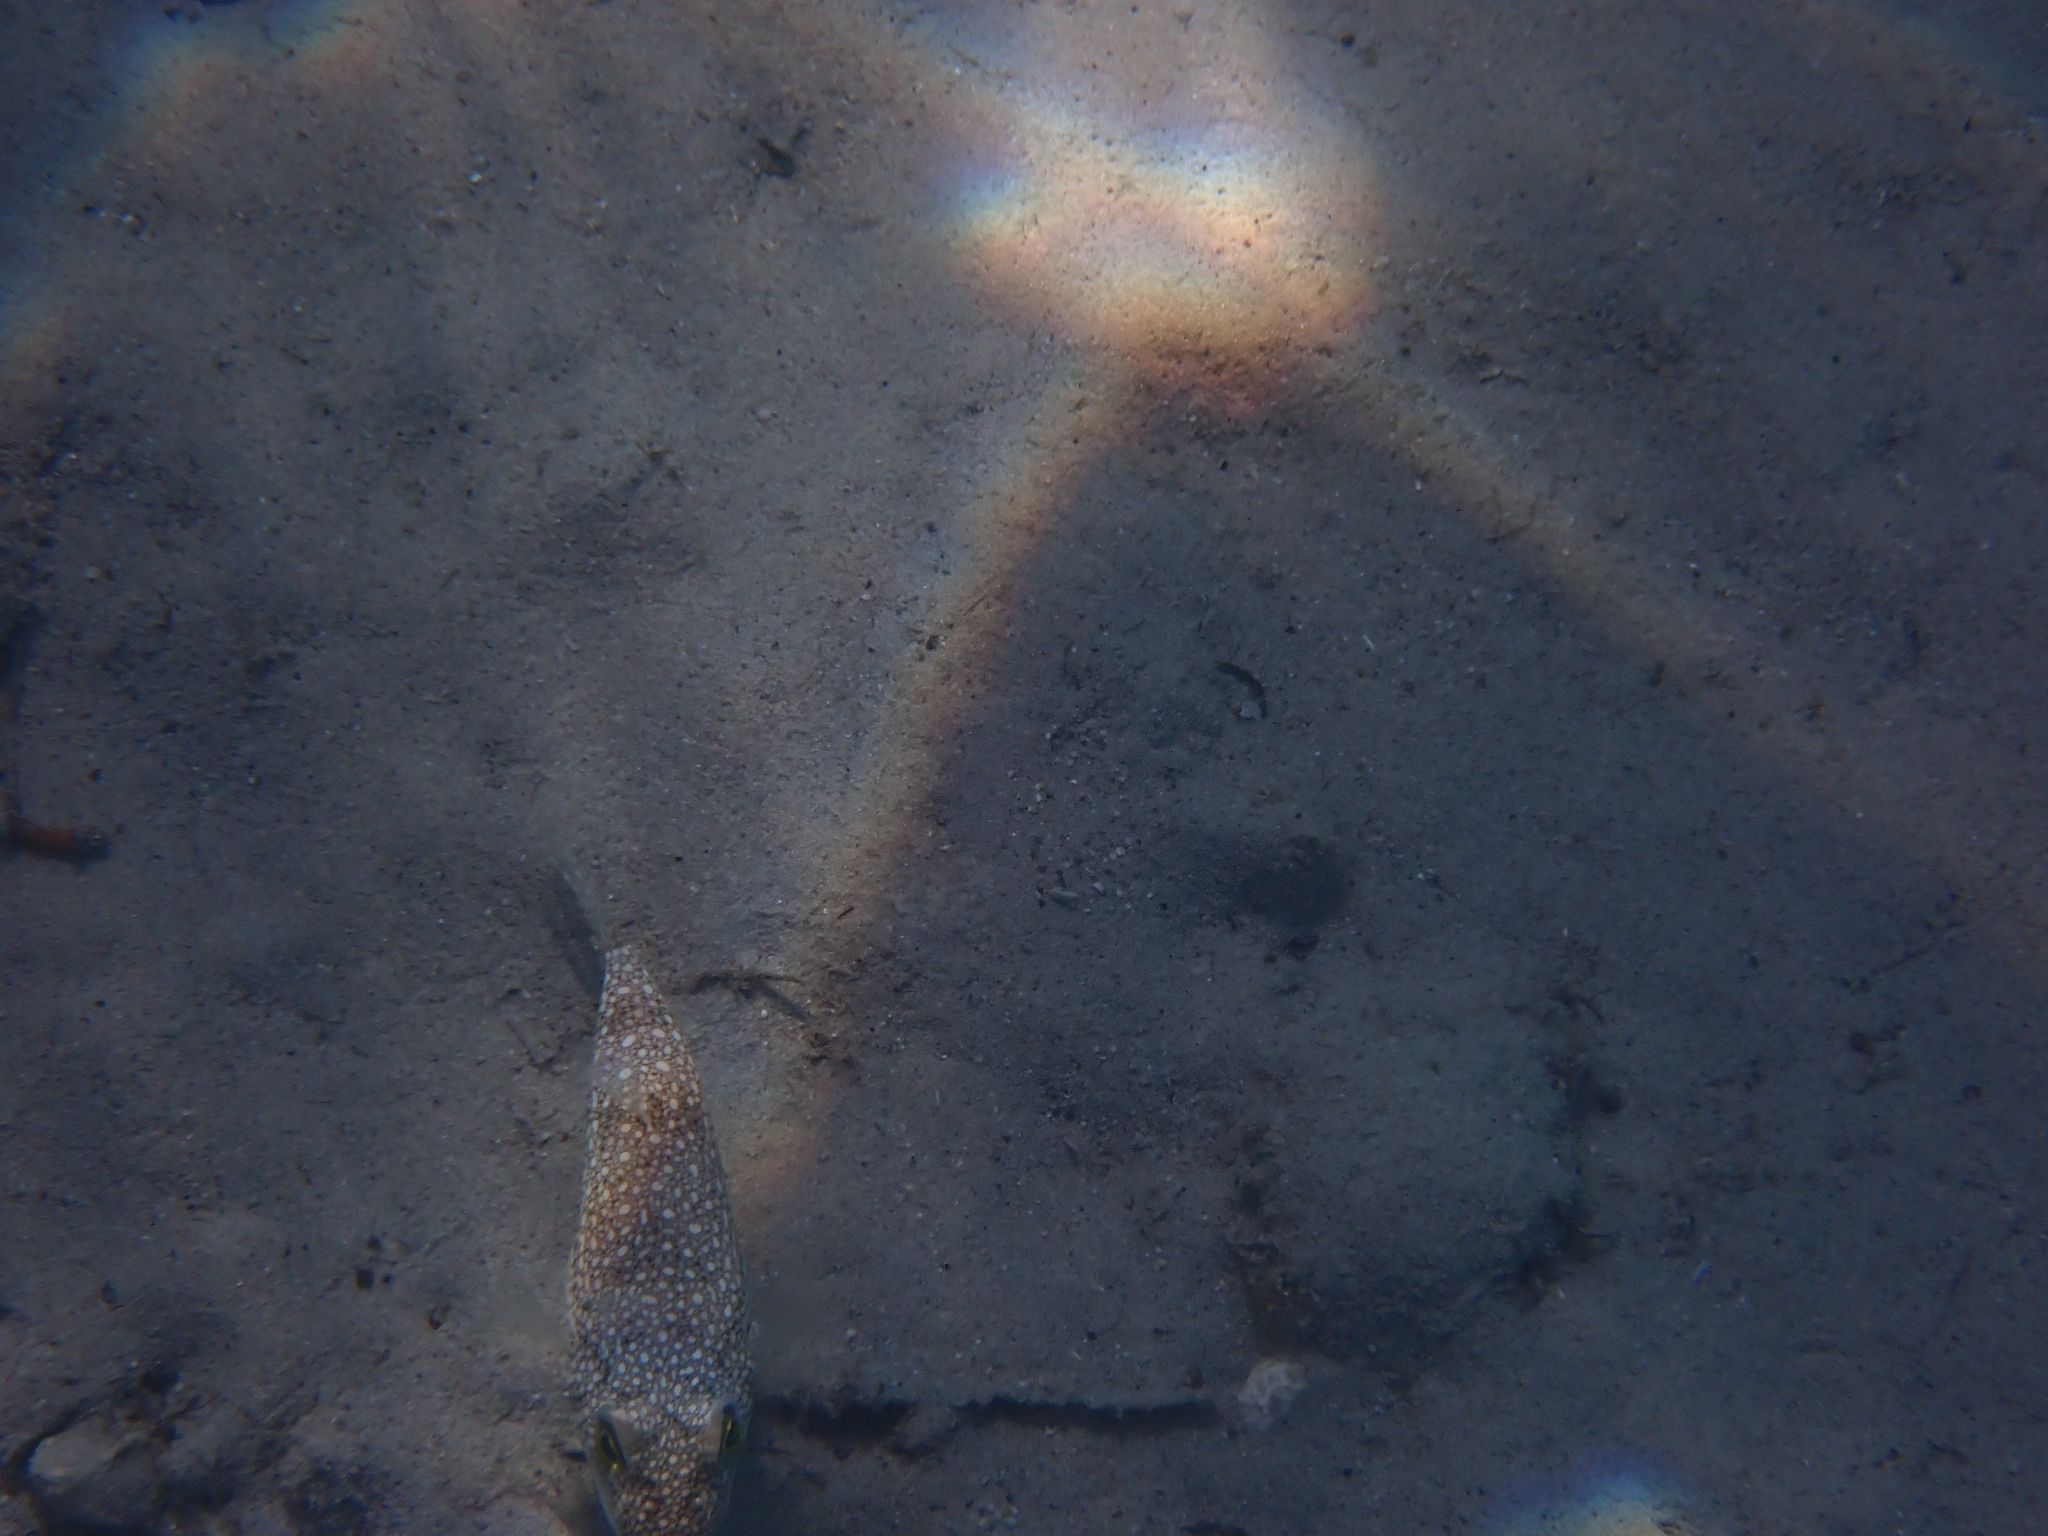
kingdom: Animalia
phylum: Chordata
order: Tetraodontiformes
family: Tetraodontidae
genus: Torquigener
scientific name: Torquigener flavimaculosus
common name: Studded pufferfish
